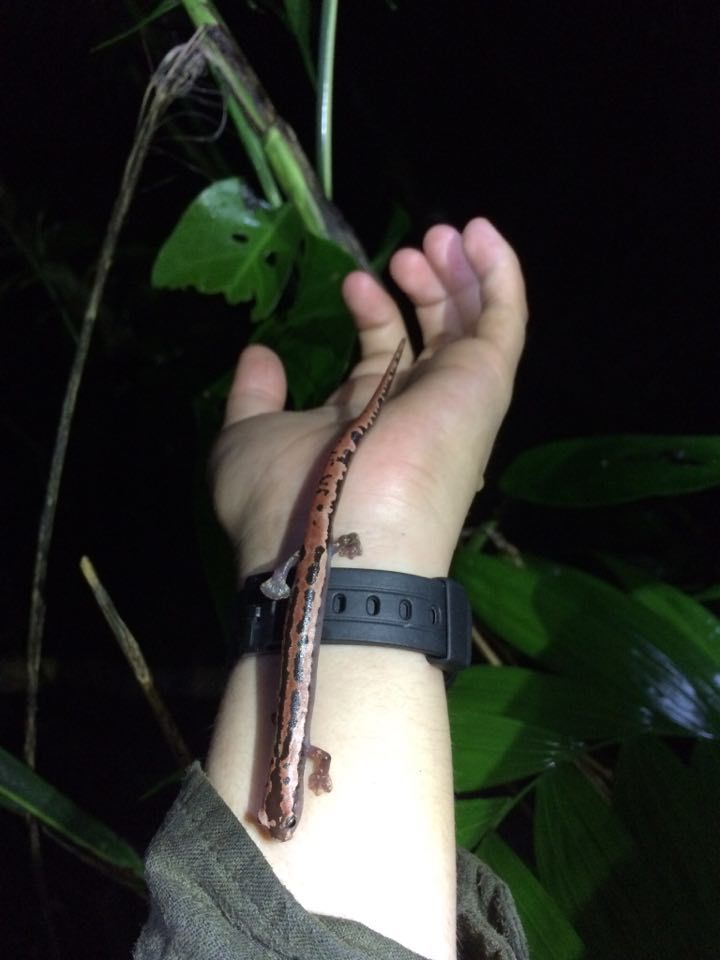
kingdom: Animalia
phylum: Chordata
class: Amphibia
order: Caudata
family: Plethodontidae
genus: Bolitoglossa
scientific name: Bolitoglossa mexicana
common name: Black-and-gold salamander
